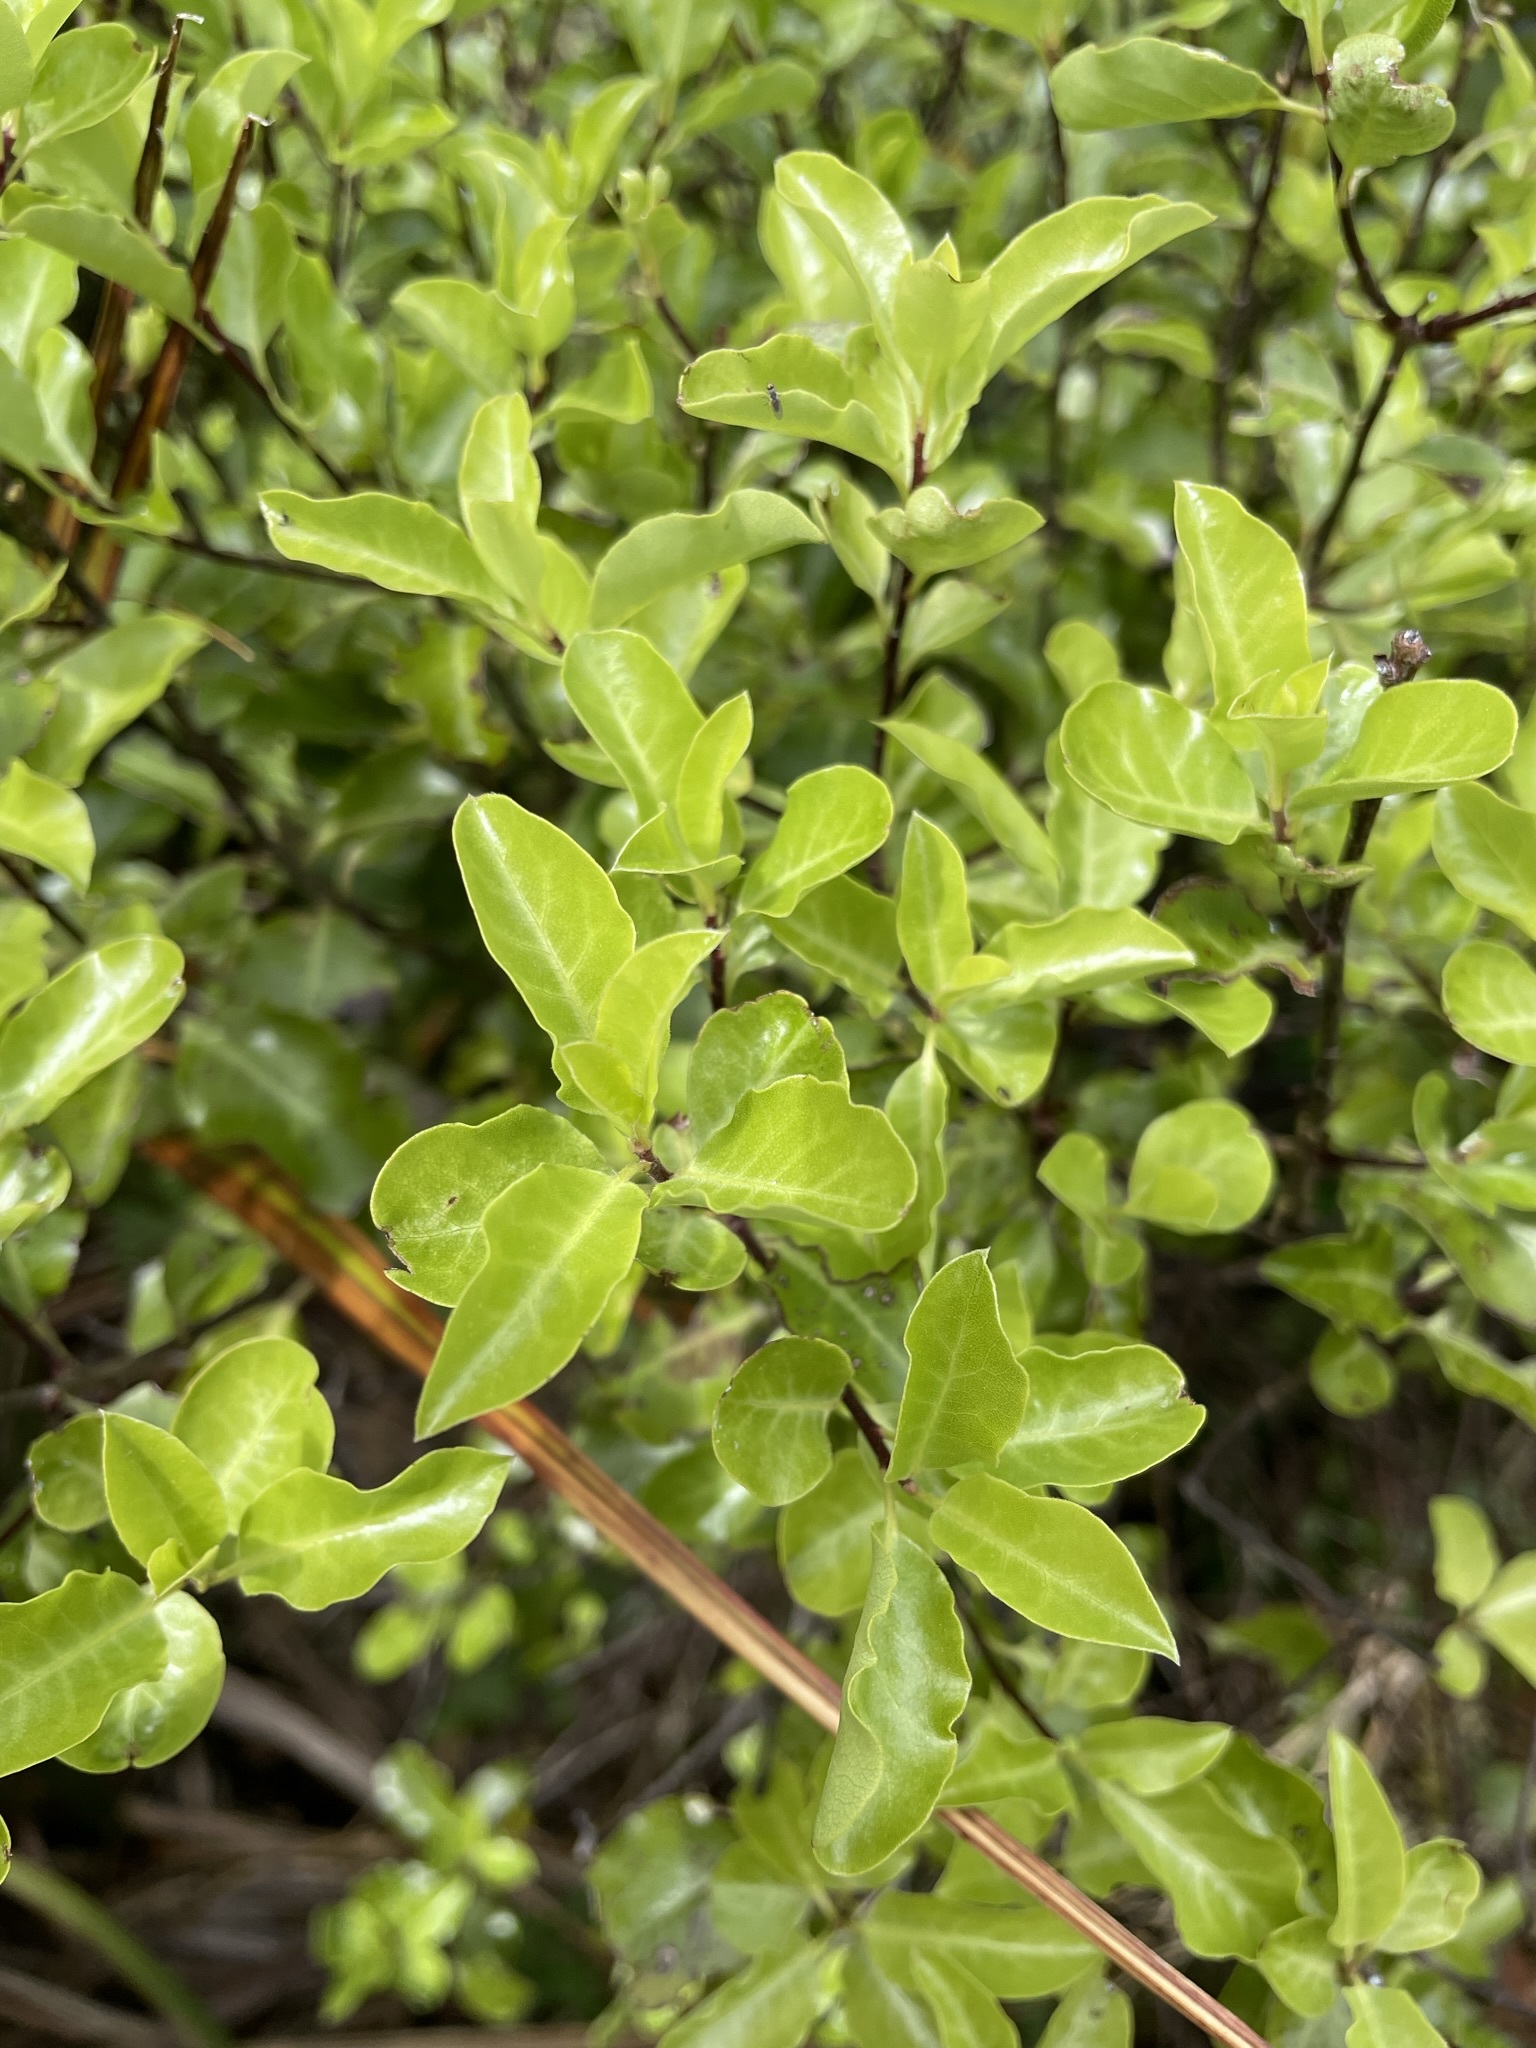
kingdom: Plantae
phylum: Tracheophyta
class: Magnoliopsida
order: Apiales
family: Pittosporaceae
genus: Pittosporum
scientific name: Pittosporum tenuifolium
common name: Kohuhu
